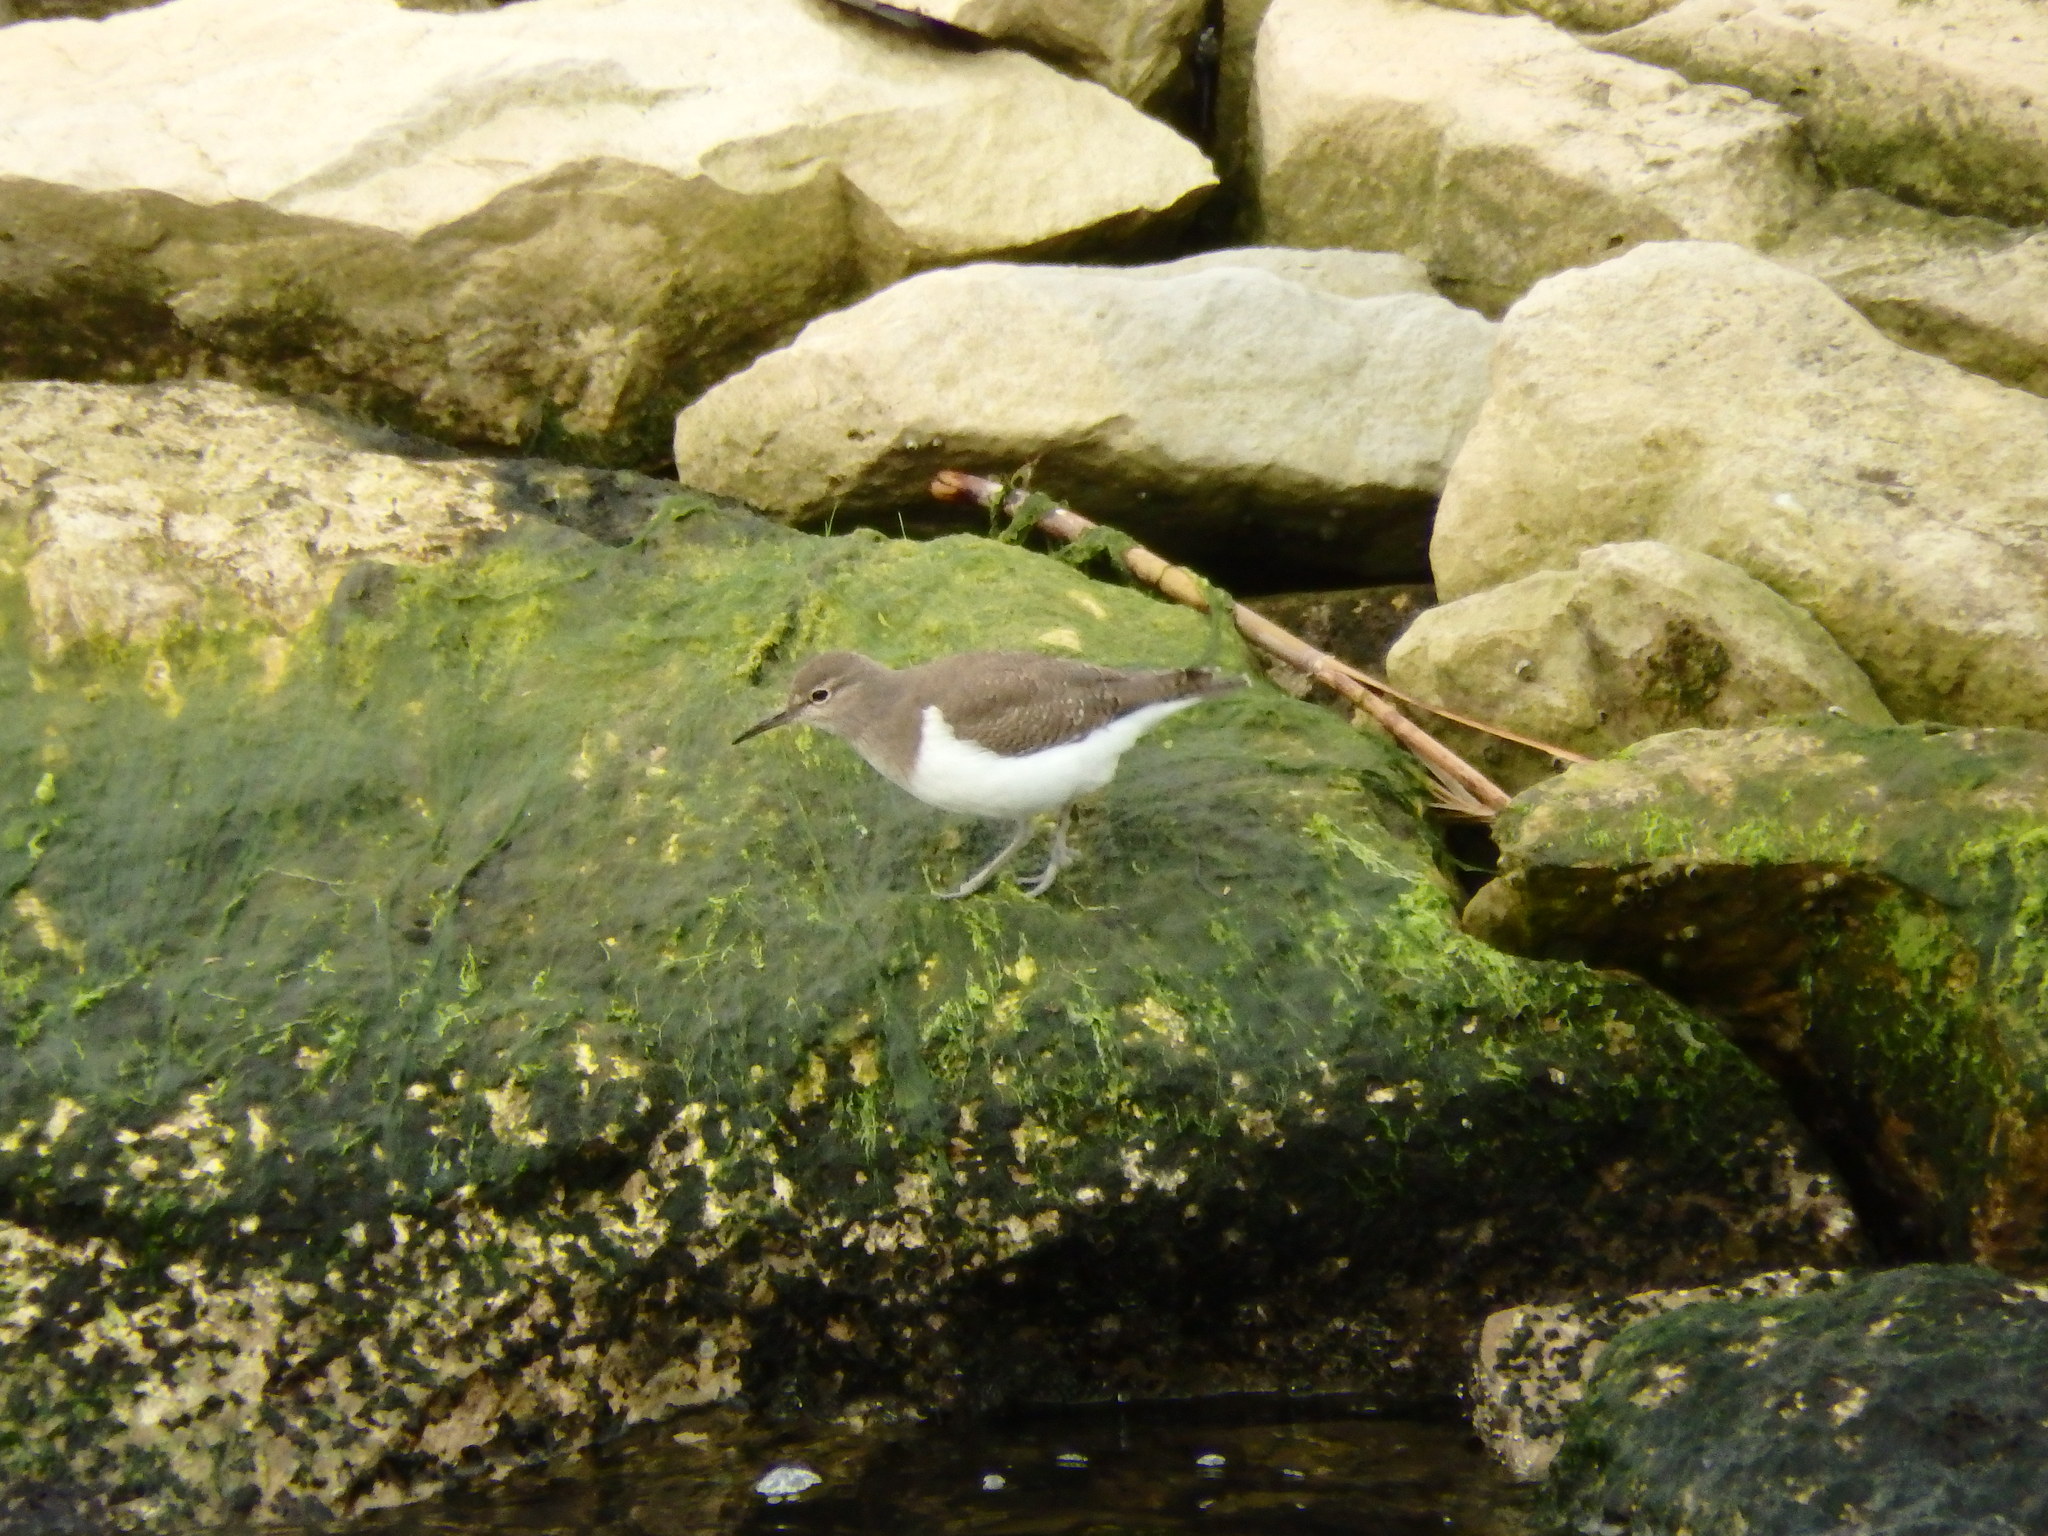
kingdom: Animalia
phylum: Chordata
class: Aves
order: Charadriiformes
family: Scolopacidae
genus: Actitis
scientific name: Actitis hypoleucos
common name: Common sandpiper
